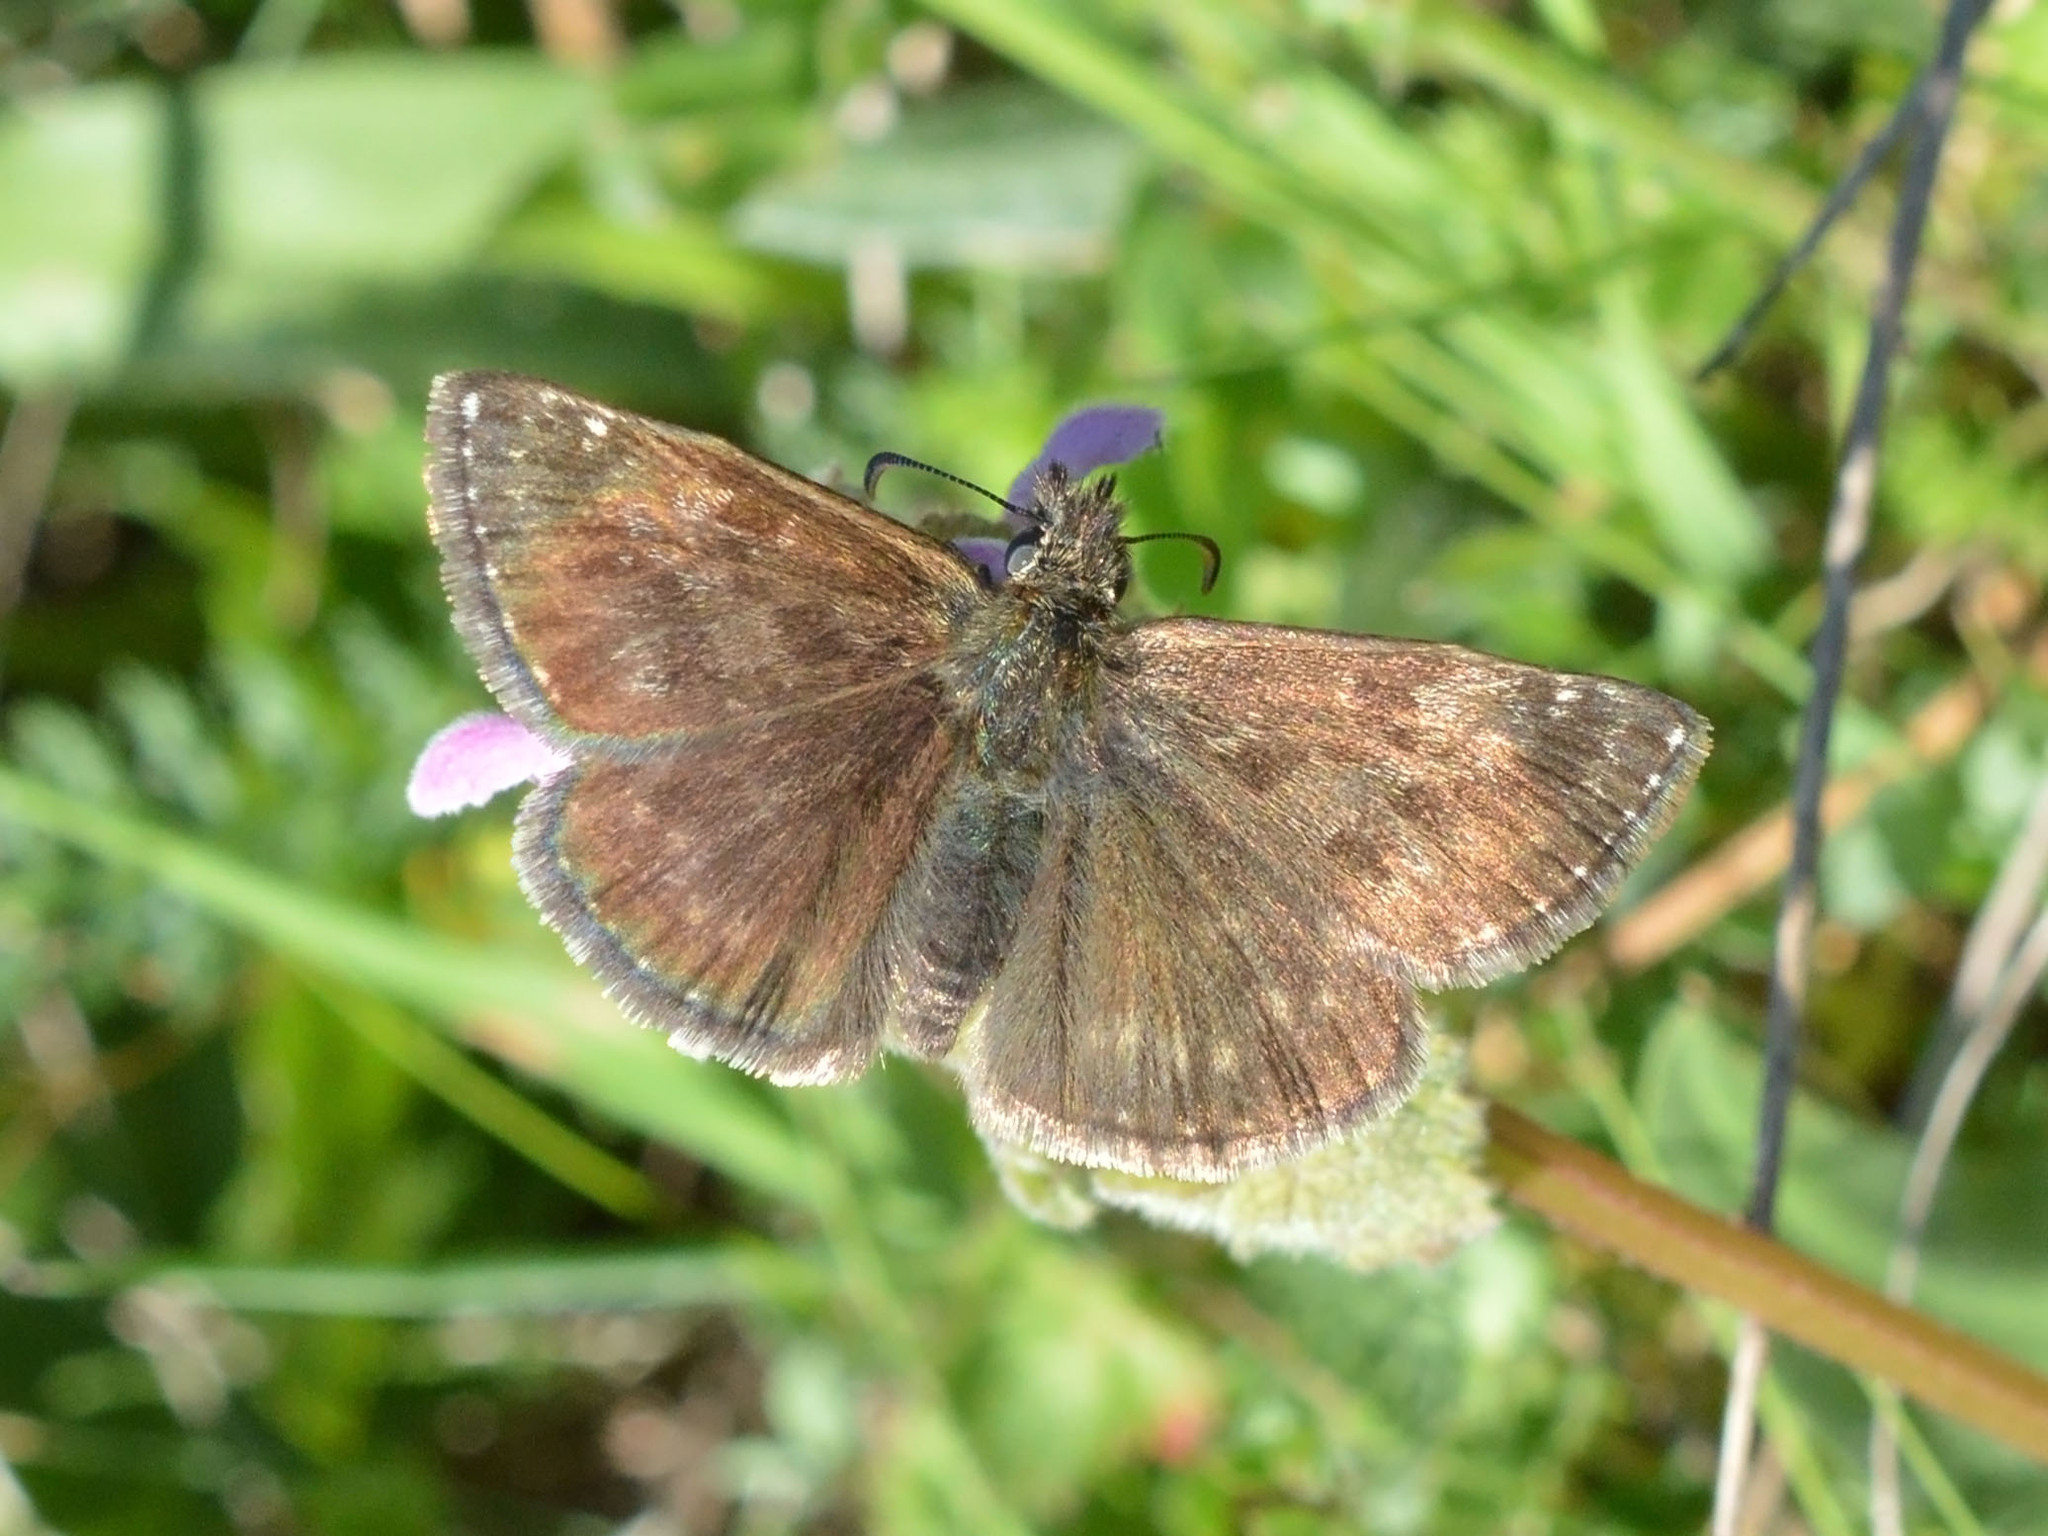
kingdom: Animalia
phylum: Arthropoda
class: Insecta
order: Lepidoptera
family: Hesperiidae
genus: Erynnis
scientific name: Erynnis tages
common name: Dingy skipper
